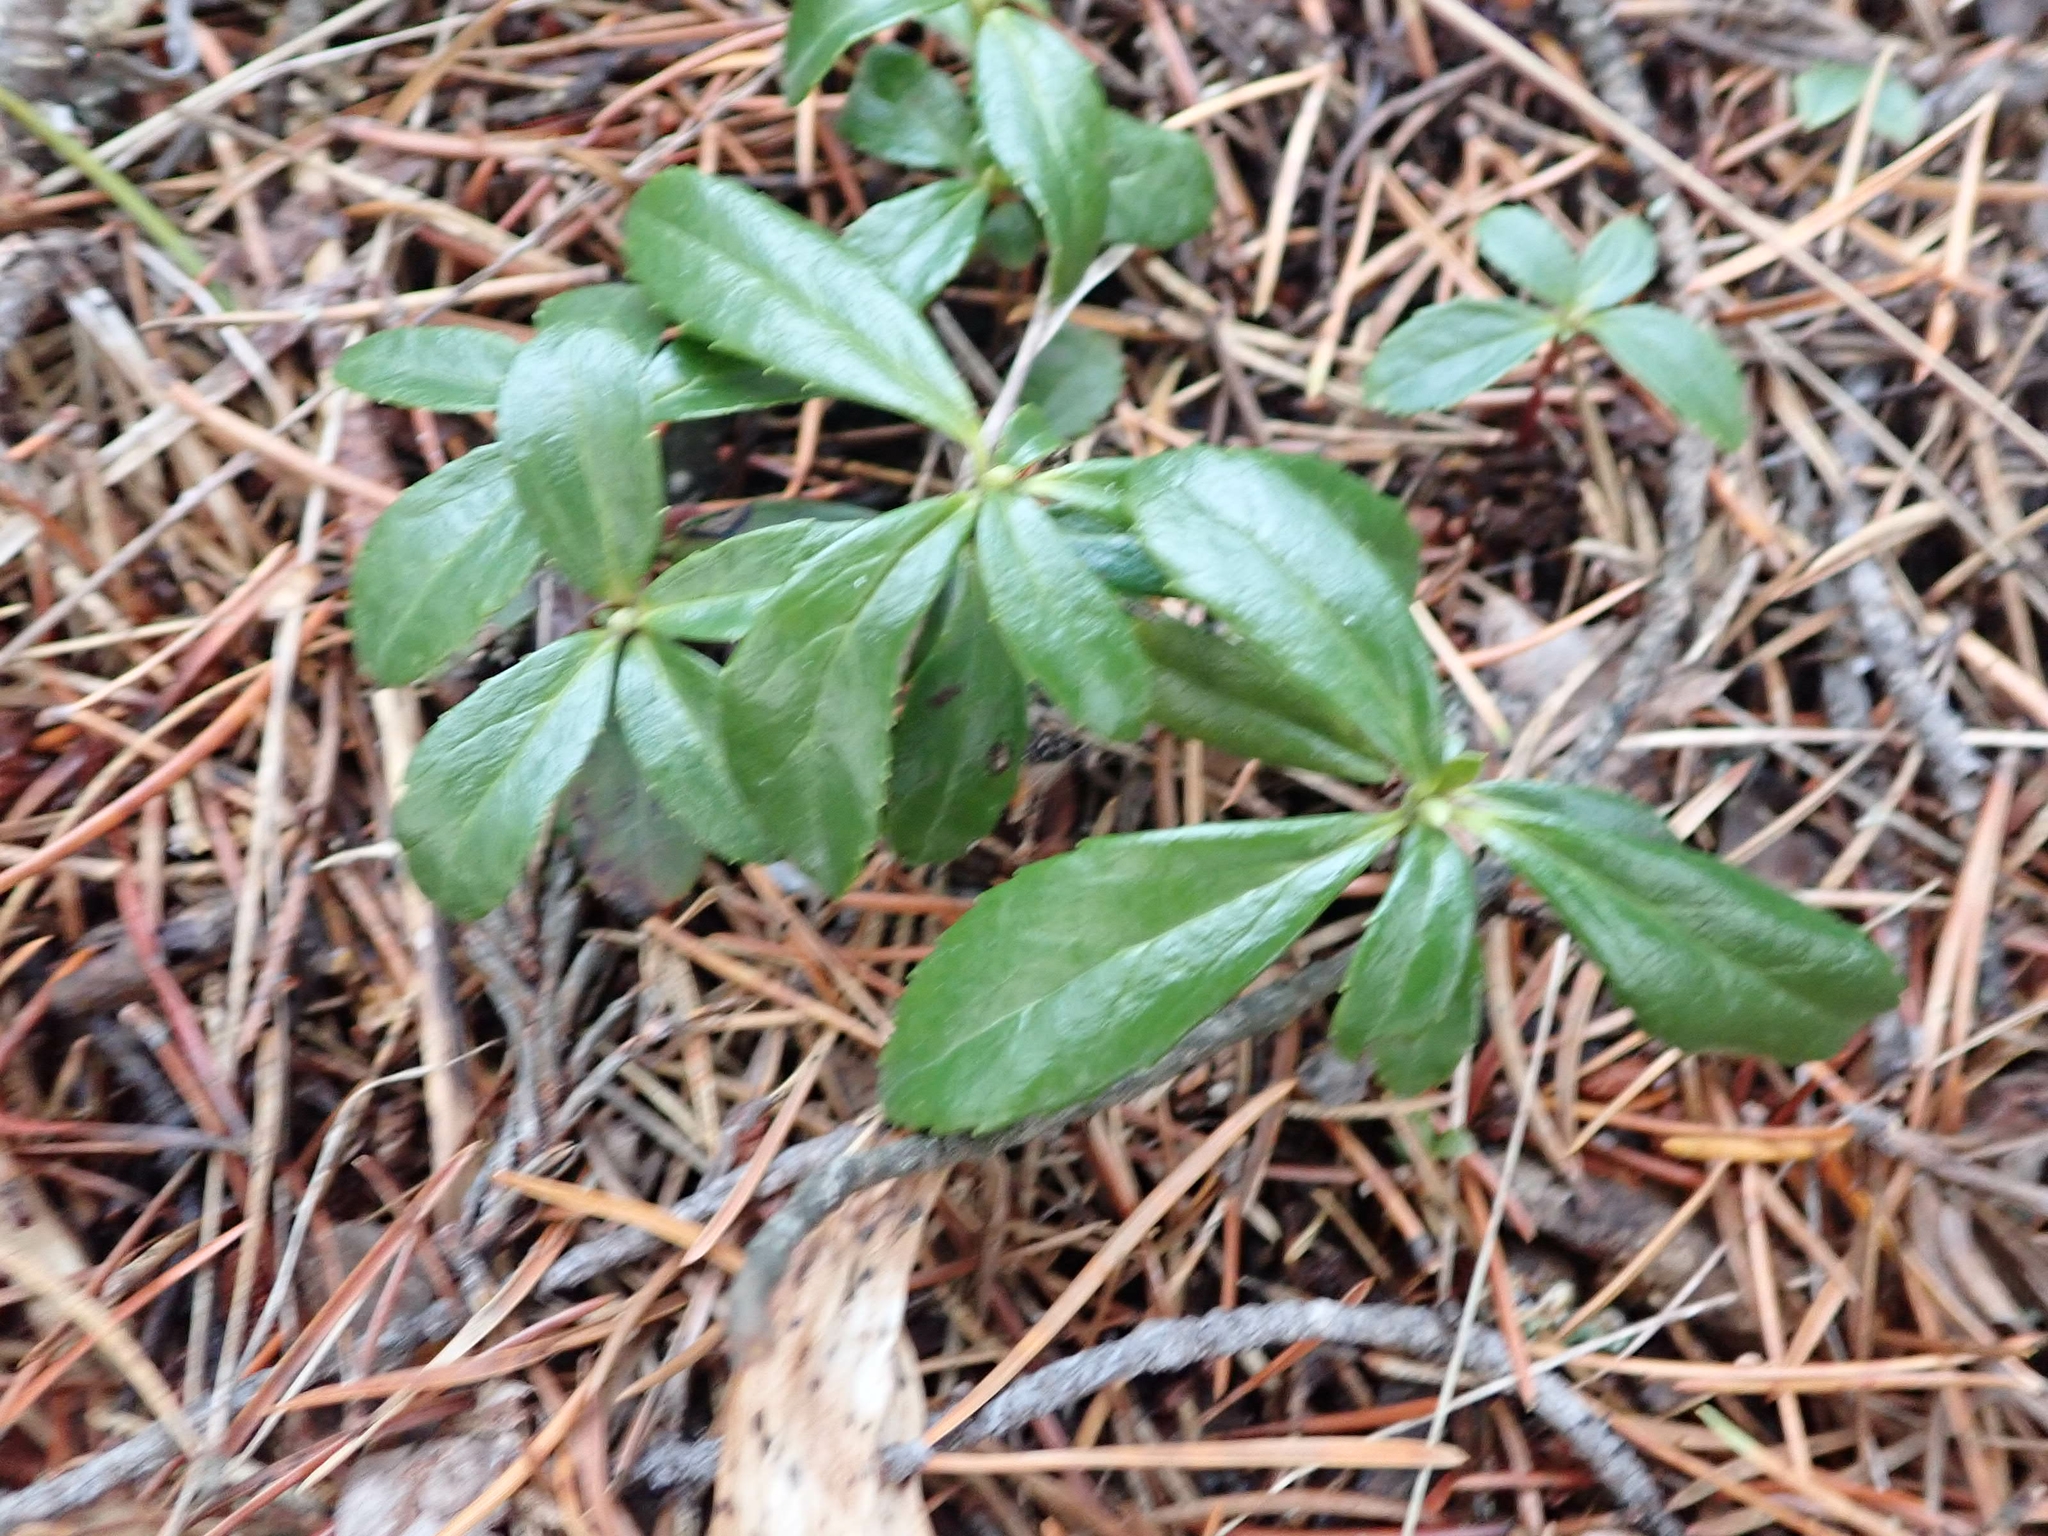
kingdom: Plantae
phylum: Tracheophyta
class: Magnoliopsida
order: Ericales
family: Ericaceae
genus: Chimaphila
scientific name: Chimaphila umbellata
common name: Pipsissewa
